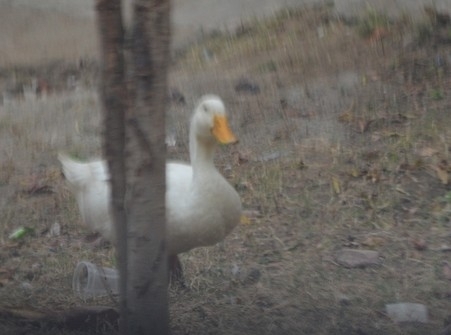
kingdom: Animalia
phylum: Chordata
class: Aves
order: Anseriformes
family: Anatidae
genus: Anas
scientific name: Anas platyrhynchos
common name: Mallard
